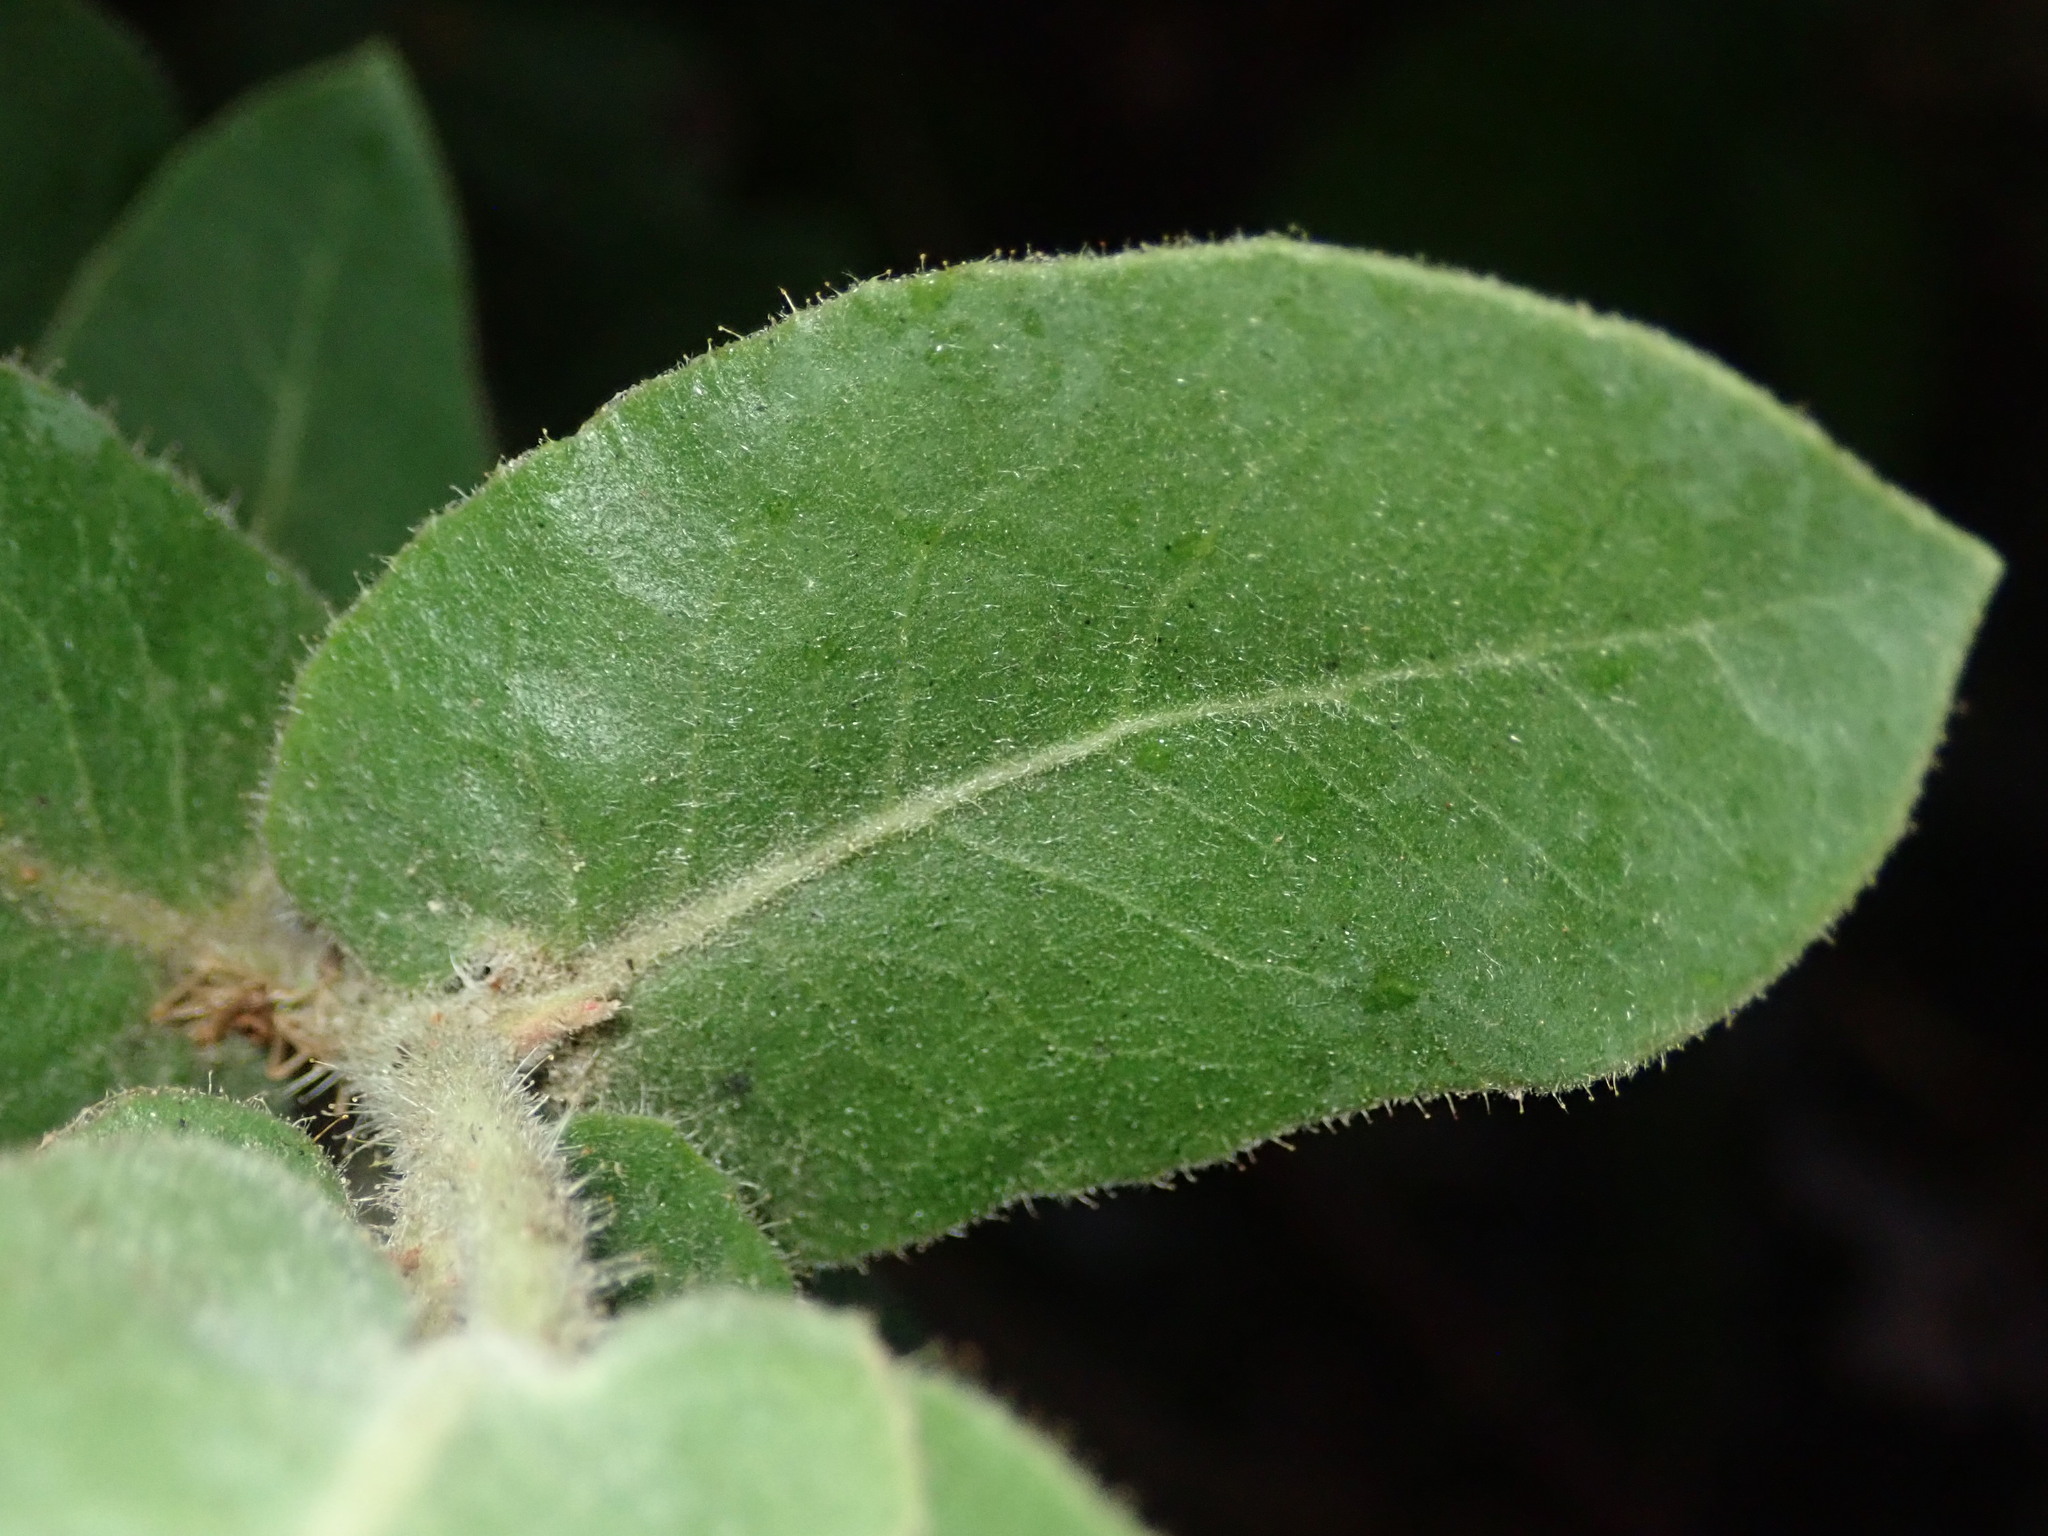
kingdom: Plantae
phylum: Tracheophyta
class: Magnoliopsida
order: Ericales
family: Ericaceae
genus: Arctostaphylos
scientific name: Arctostaphylos regismontana
